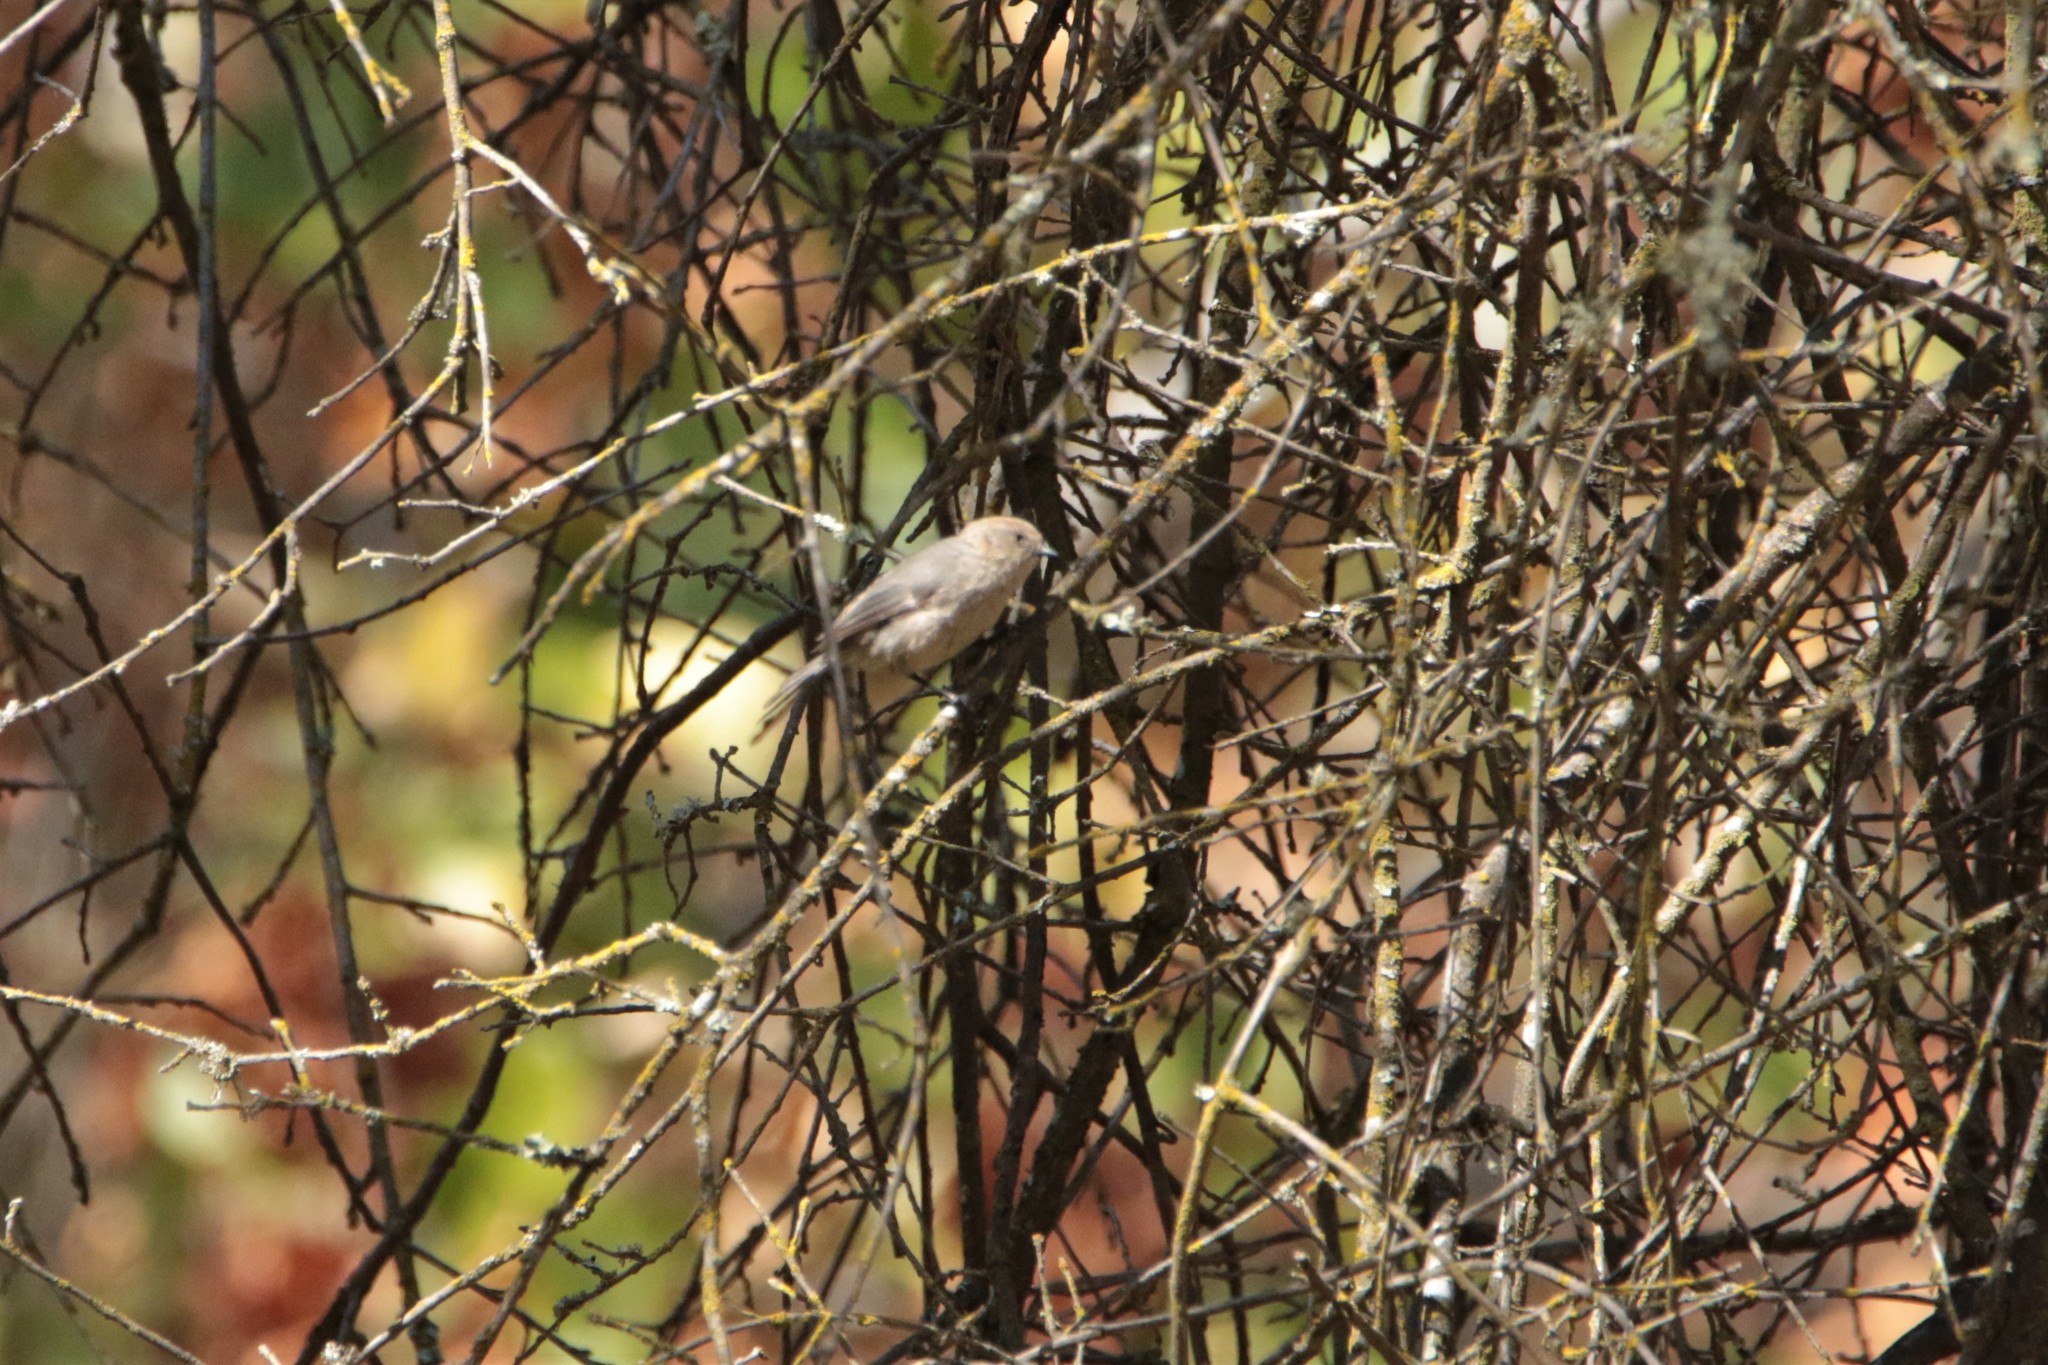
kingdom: Animalia
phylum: Chordata
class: Aves
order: Passeriformes
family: Aegithalidae
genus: Psaltriparus
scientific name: Psaltriparus minimus
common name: American bushtit
